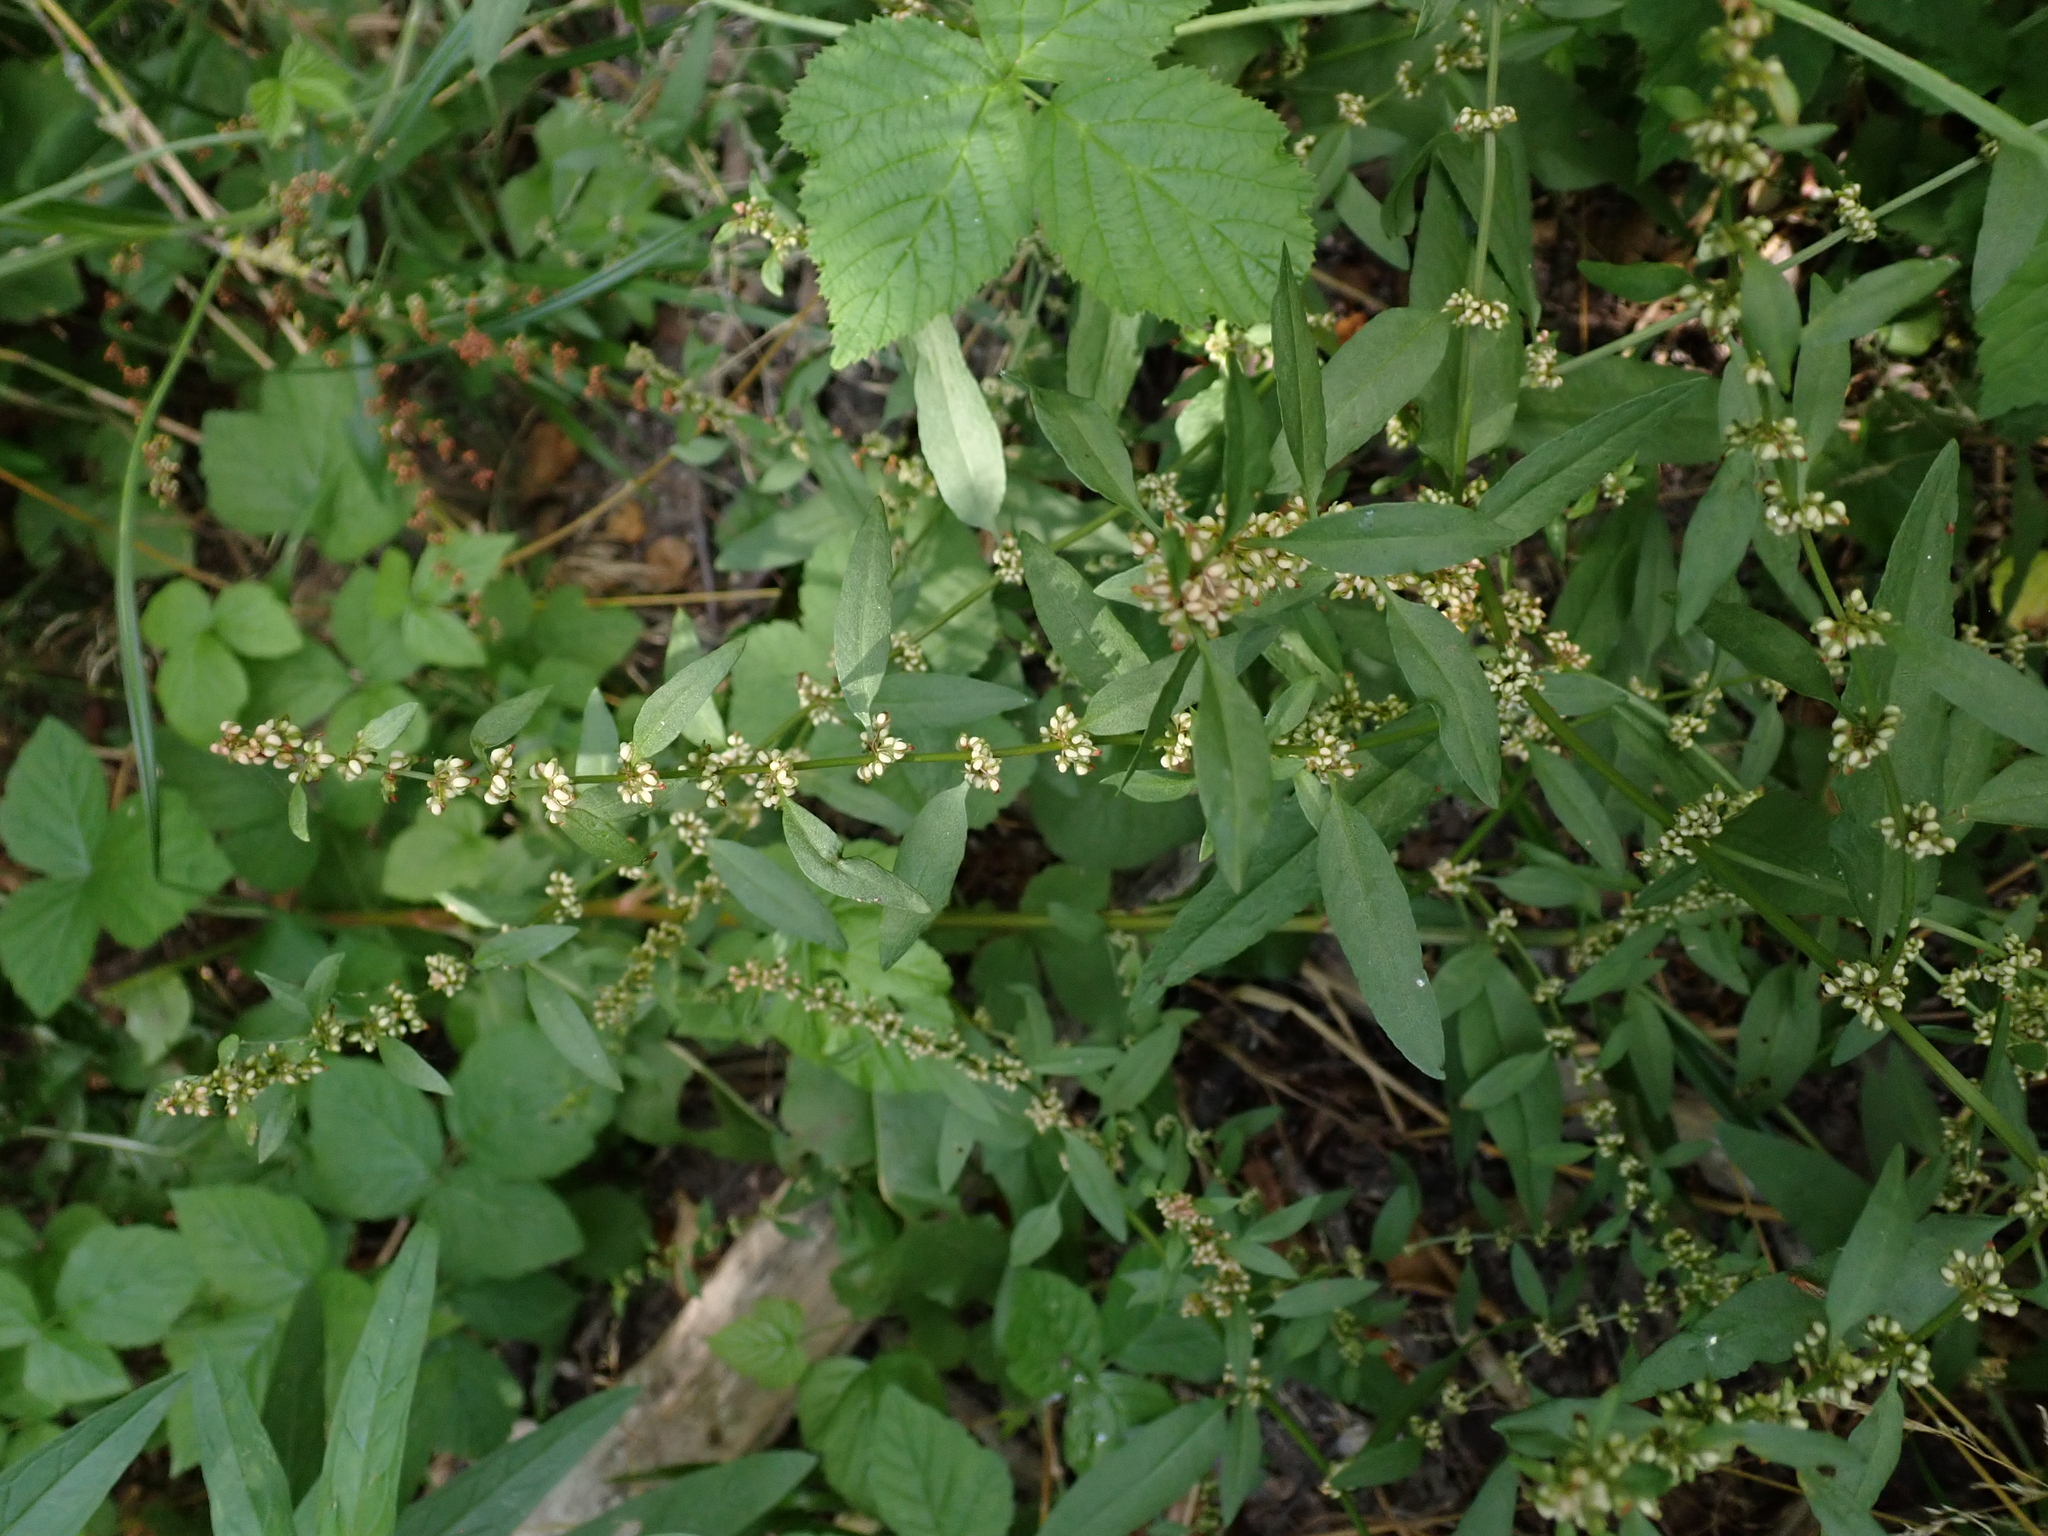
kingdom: Plantae
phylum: Tracheophyta
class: Magnoliopsida
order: Caryophyllales
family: Polygonaceae
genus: Rumex
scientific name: Rumex conglomeratus
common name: Clustered dock
